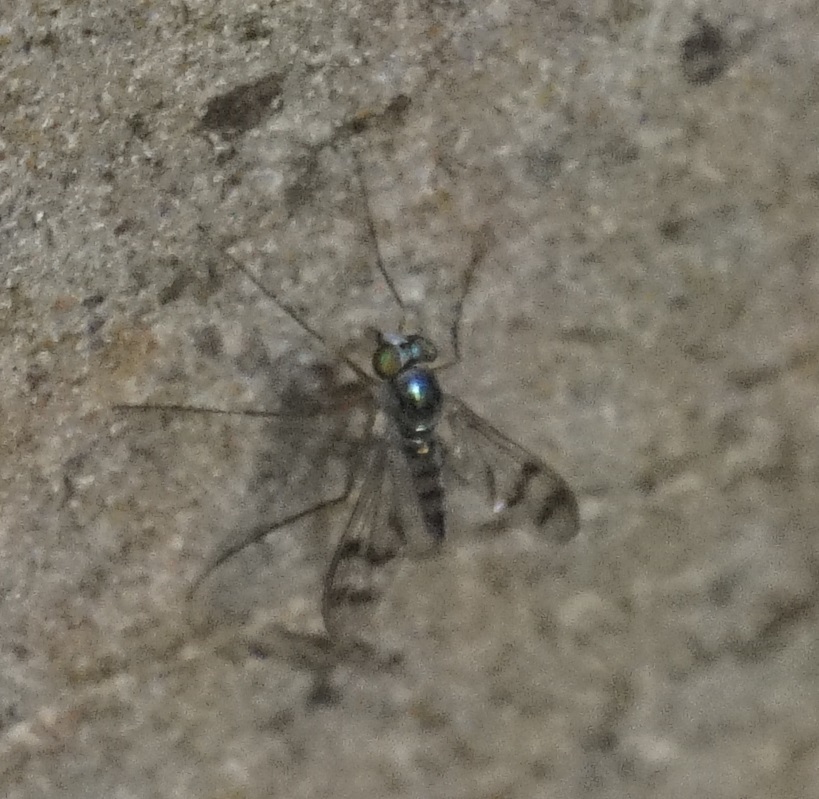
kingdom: Animalia
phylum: Arthropoda
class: Insecta
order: Diptera
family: Dolichopodidae
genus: Heteropsilopus
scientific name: Heteropsilopus squamifer
